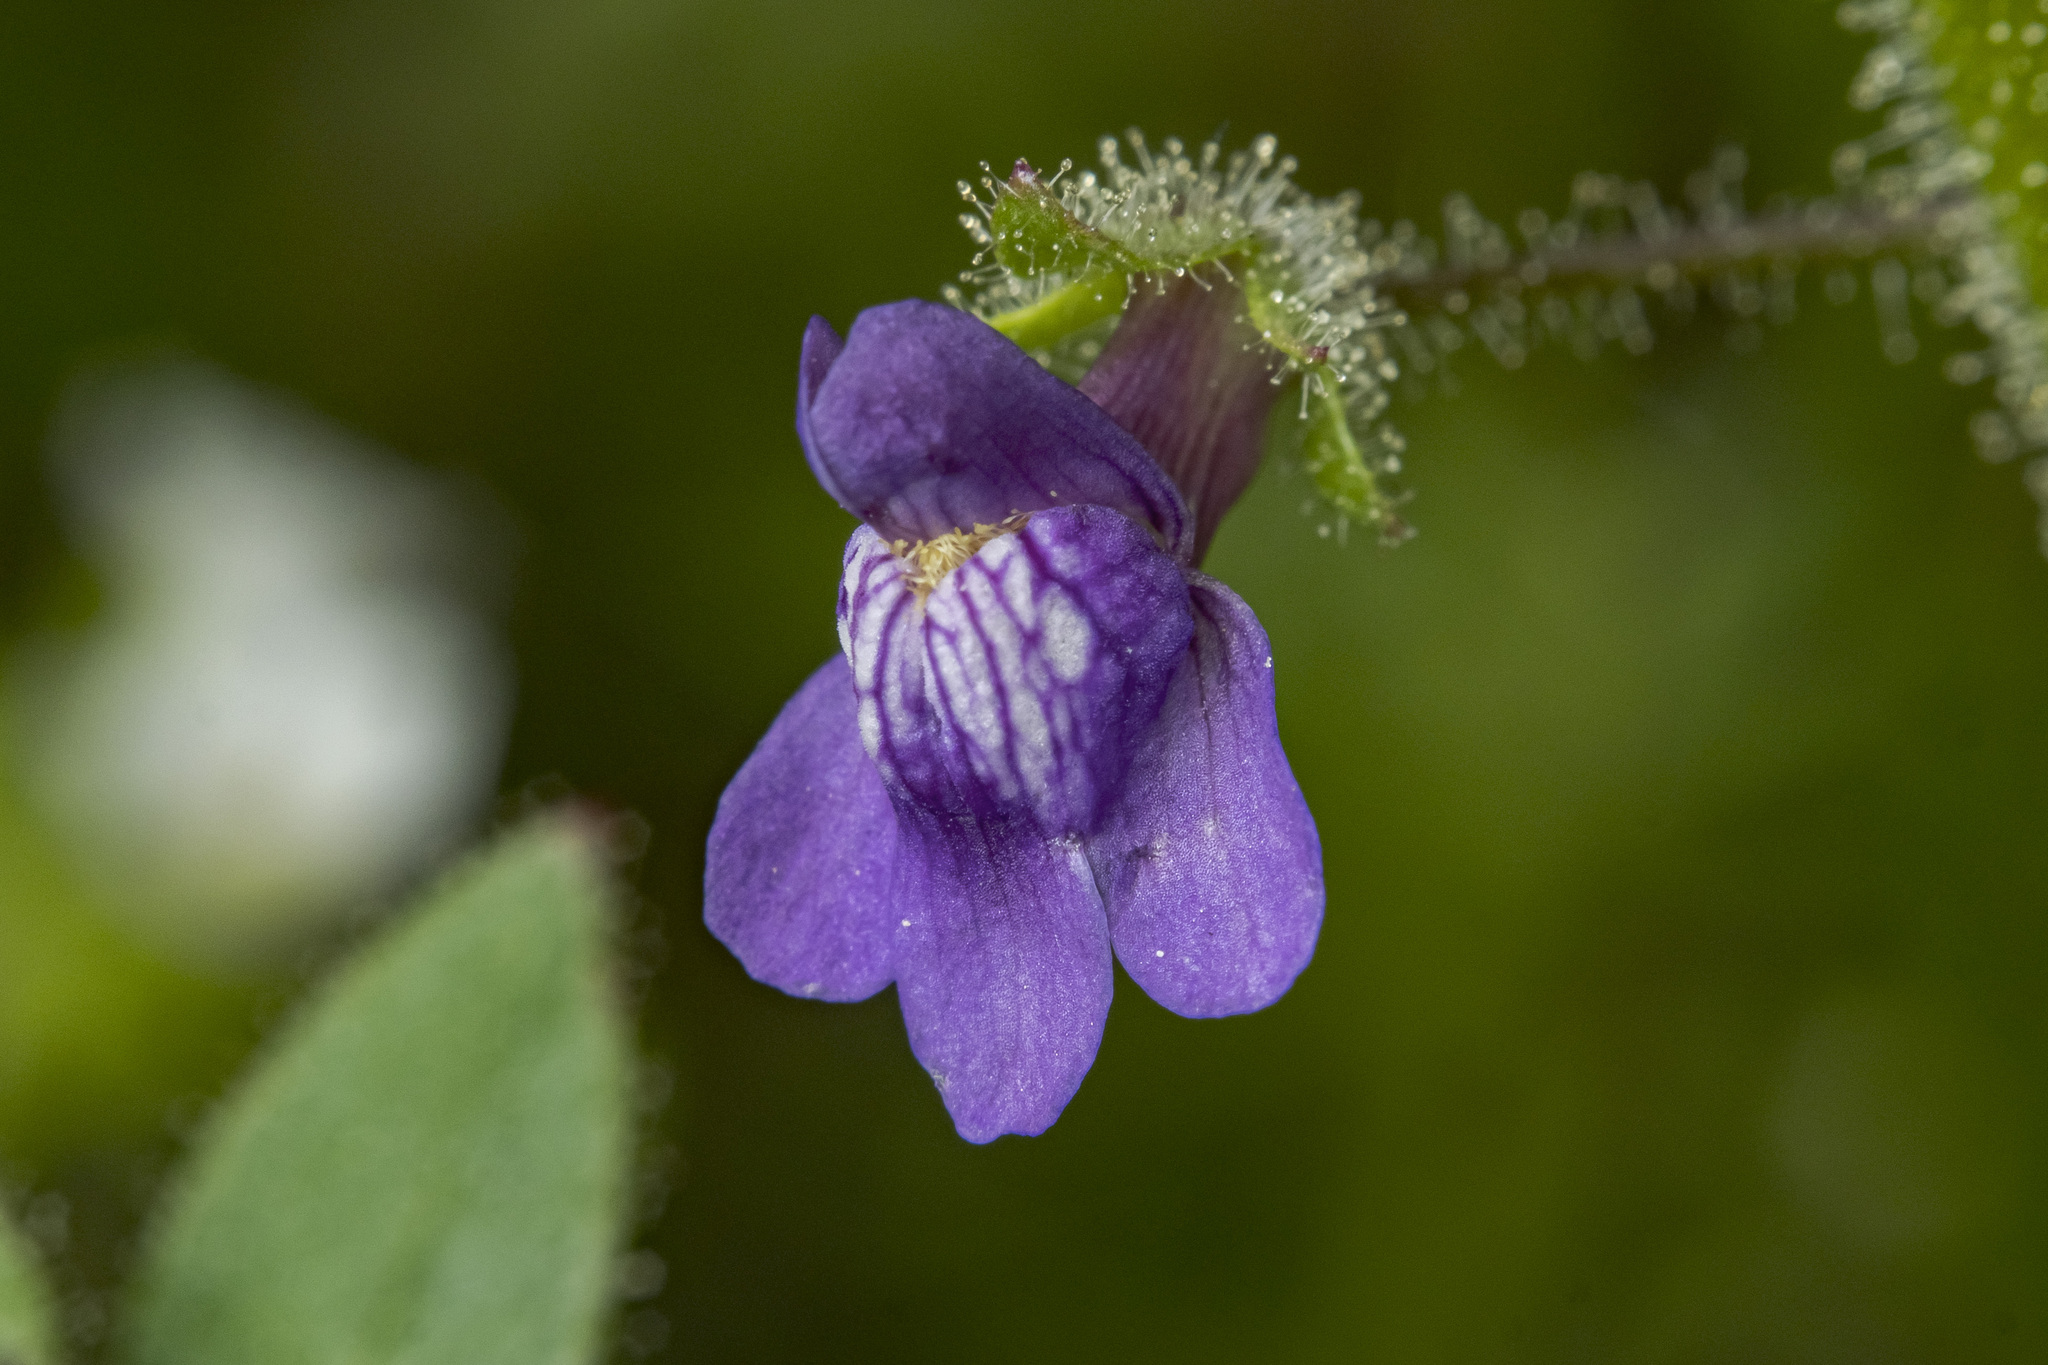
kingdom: Plantae
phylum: Tracheophyta
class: Magnoliopsida
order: Lamiales
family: Plantaginaceae
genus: Sairocarpus
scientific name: Sairocarpus nuttallianus
